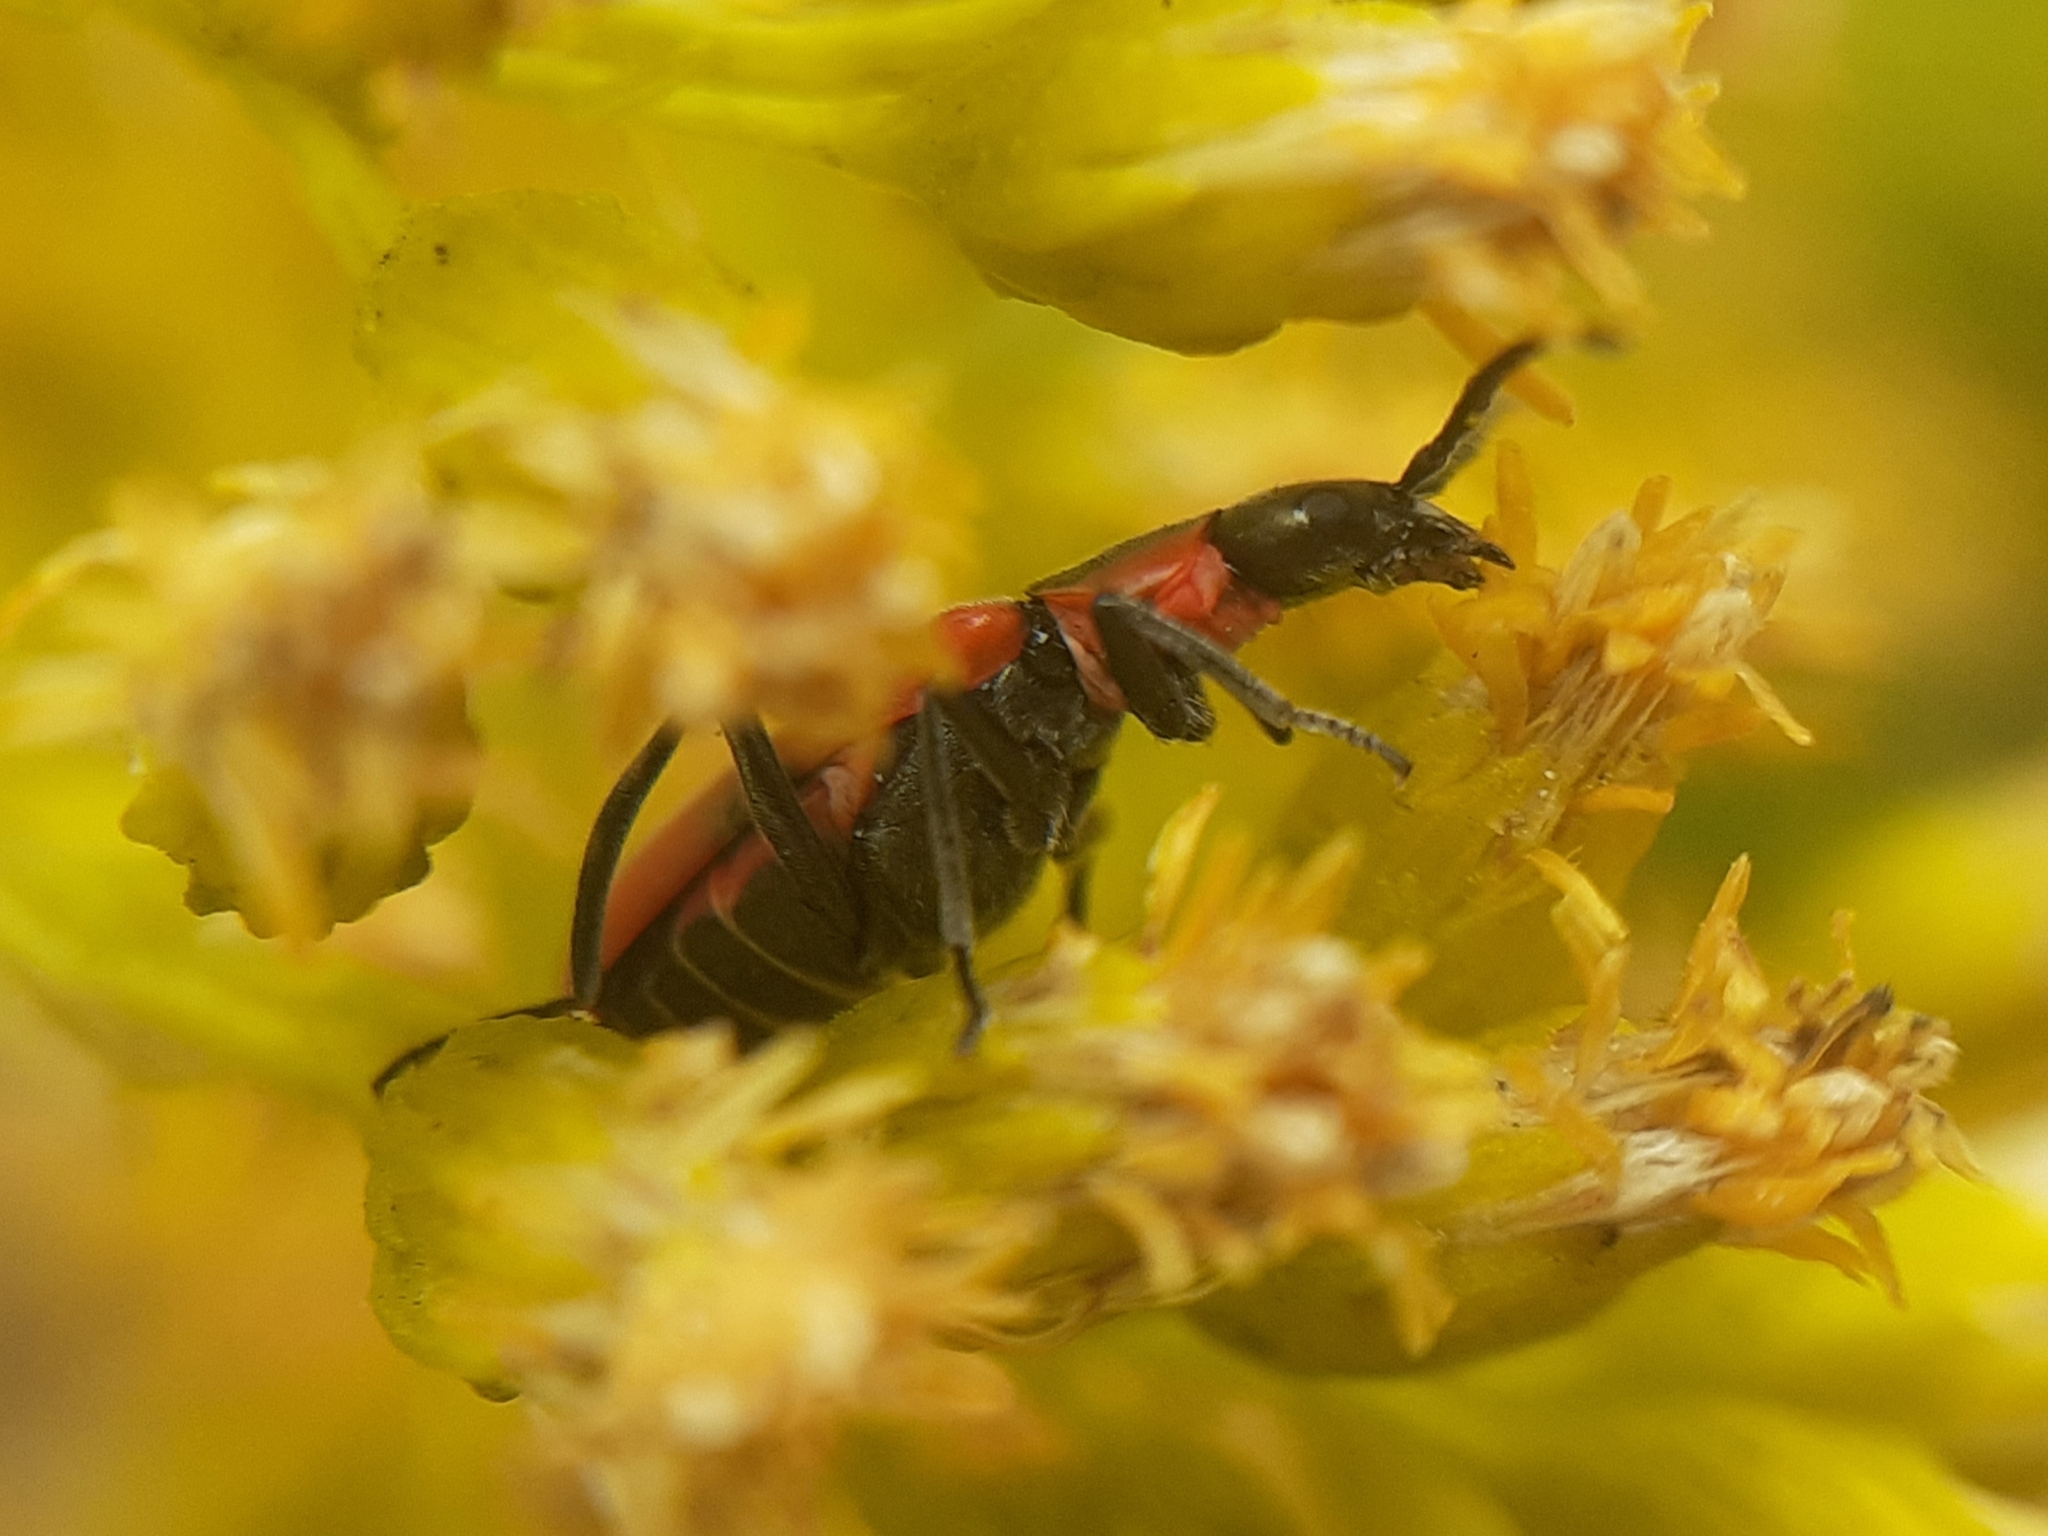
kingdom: Animalia
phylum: Arthropoda
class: Insecta
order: Coleoptera
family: Melyridae
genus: Anthocomus
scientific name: Anthocomus rufus
